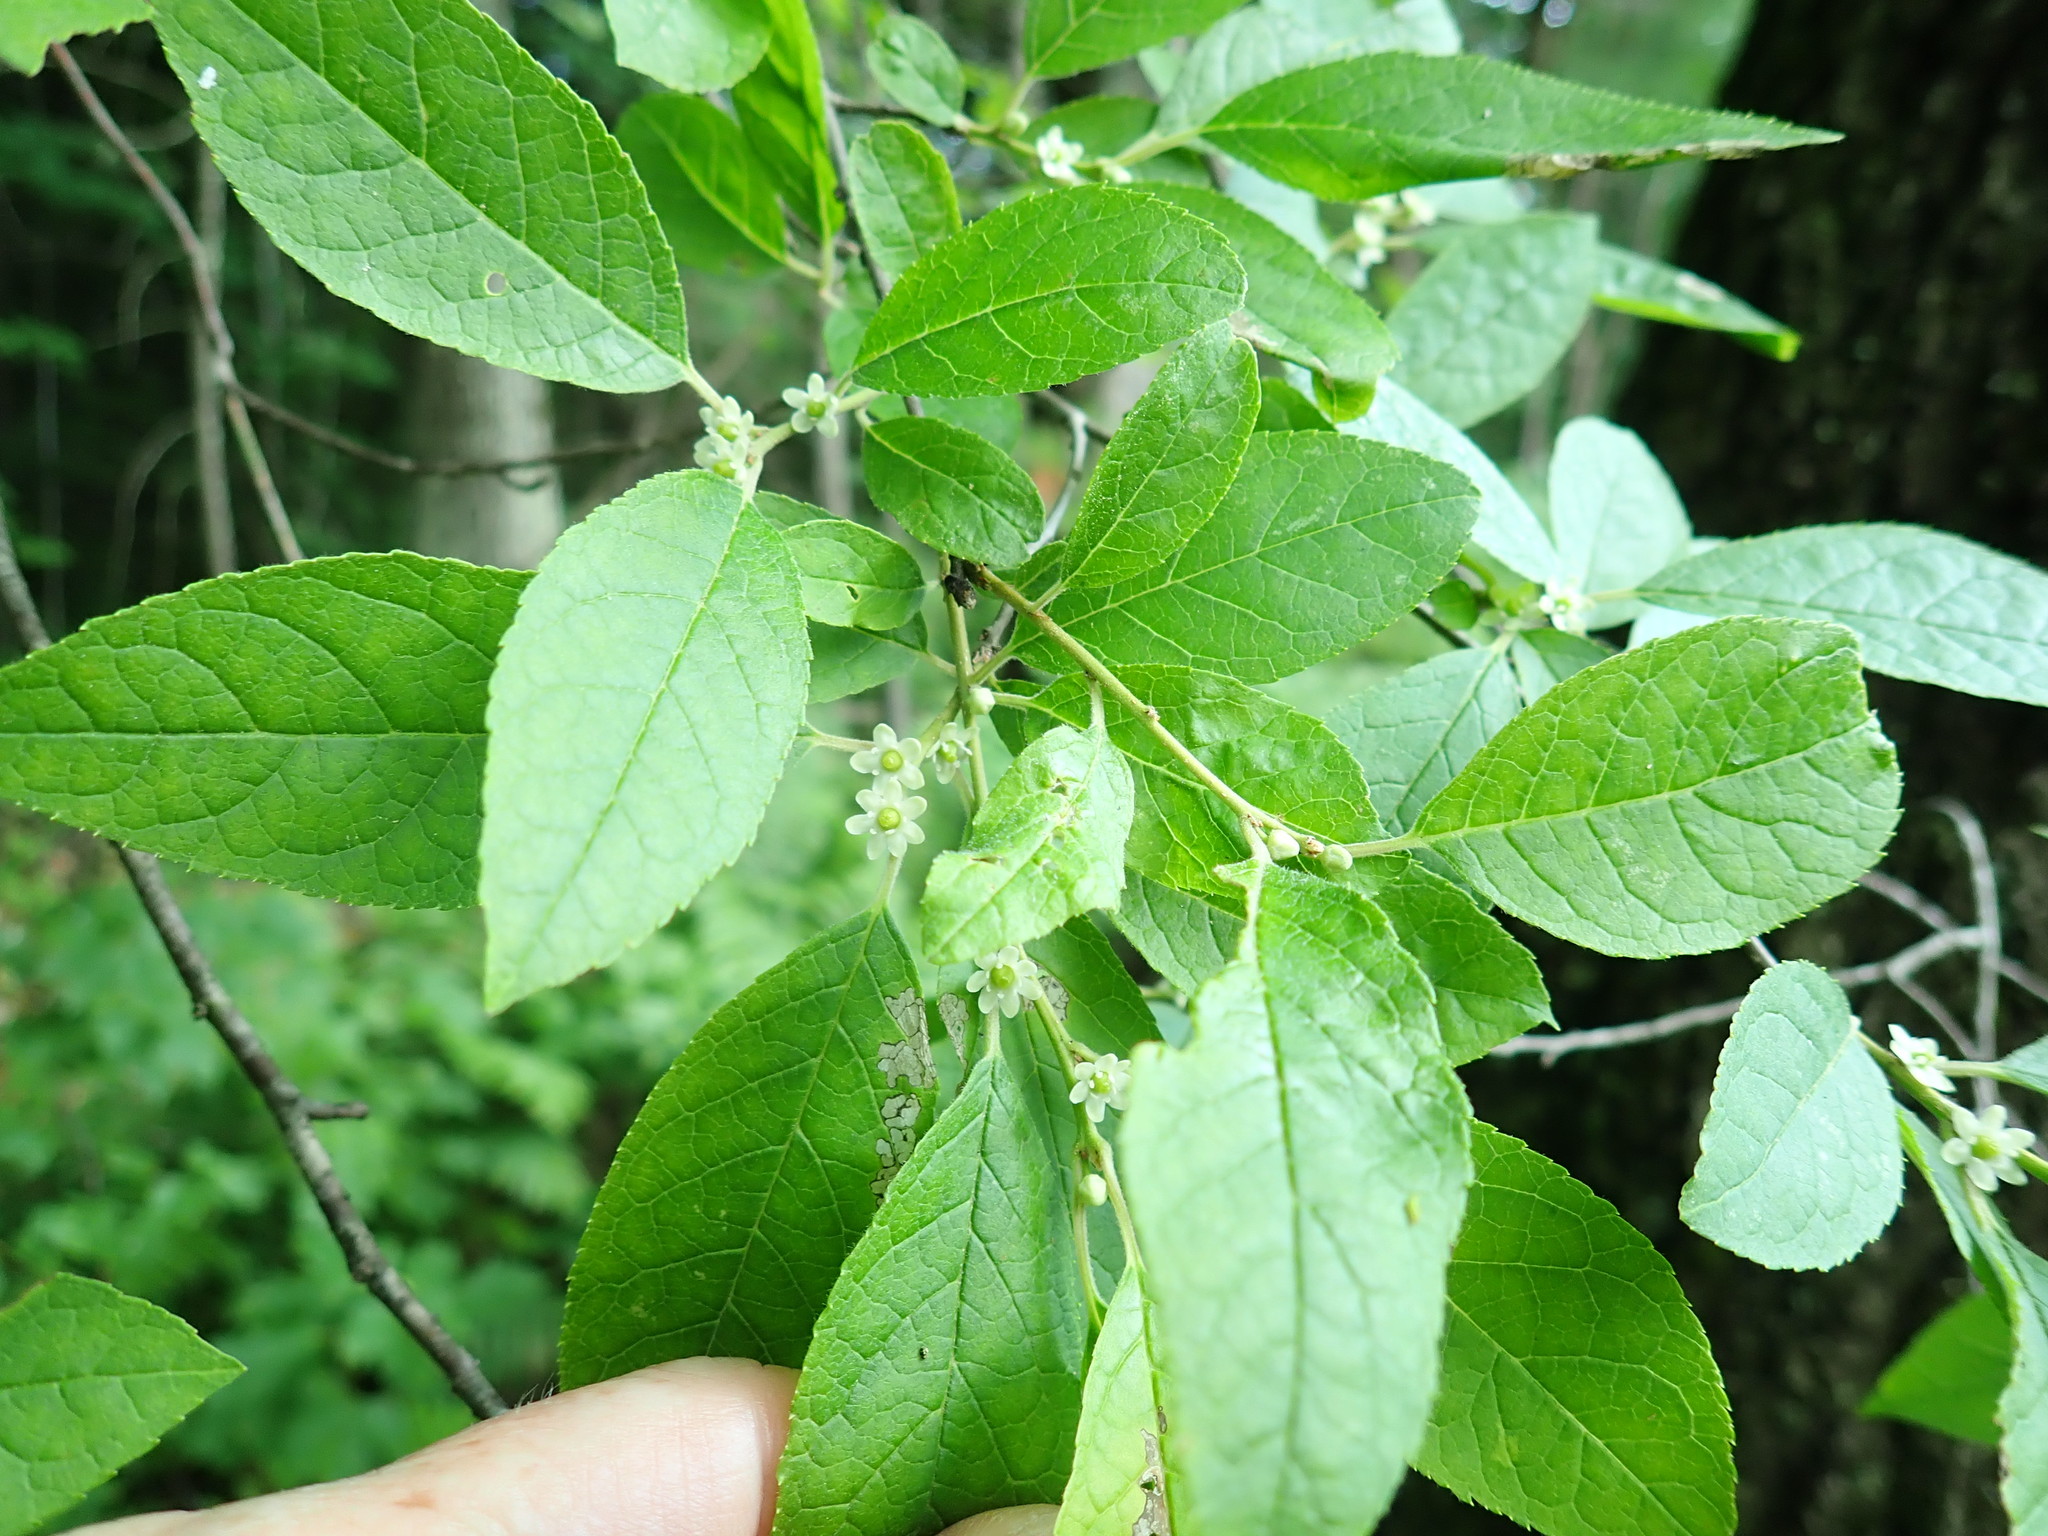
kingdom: Plantae
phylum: Tracheophyta
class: Magnoliopsida
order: Aquifoliales
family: Aquifoliaceae
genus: Ilex
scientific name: Ilex verticillata
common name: Virginia winterberry
